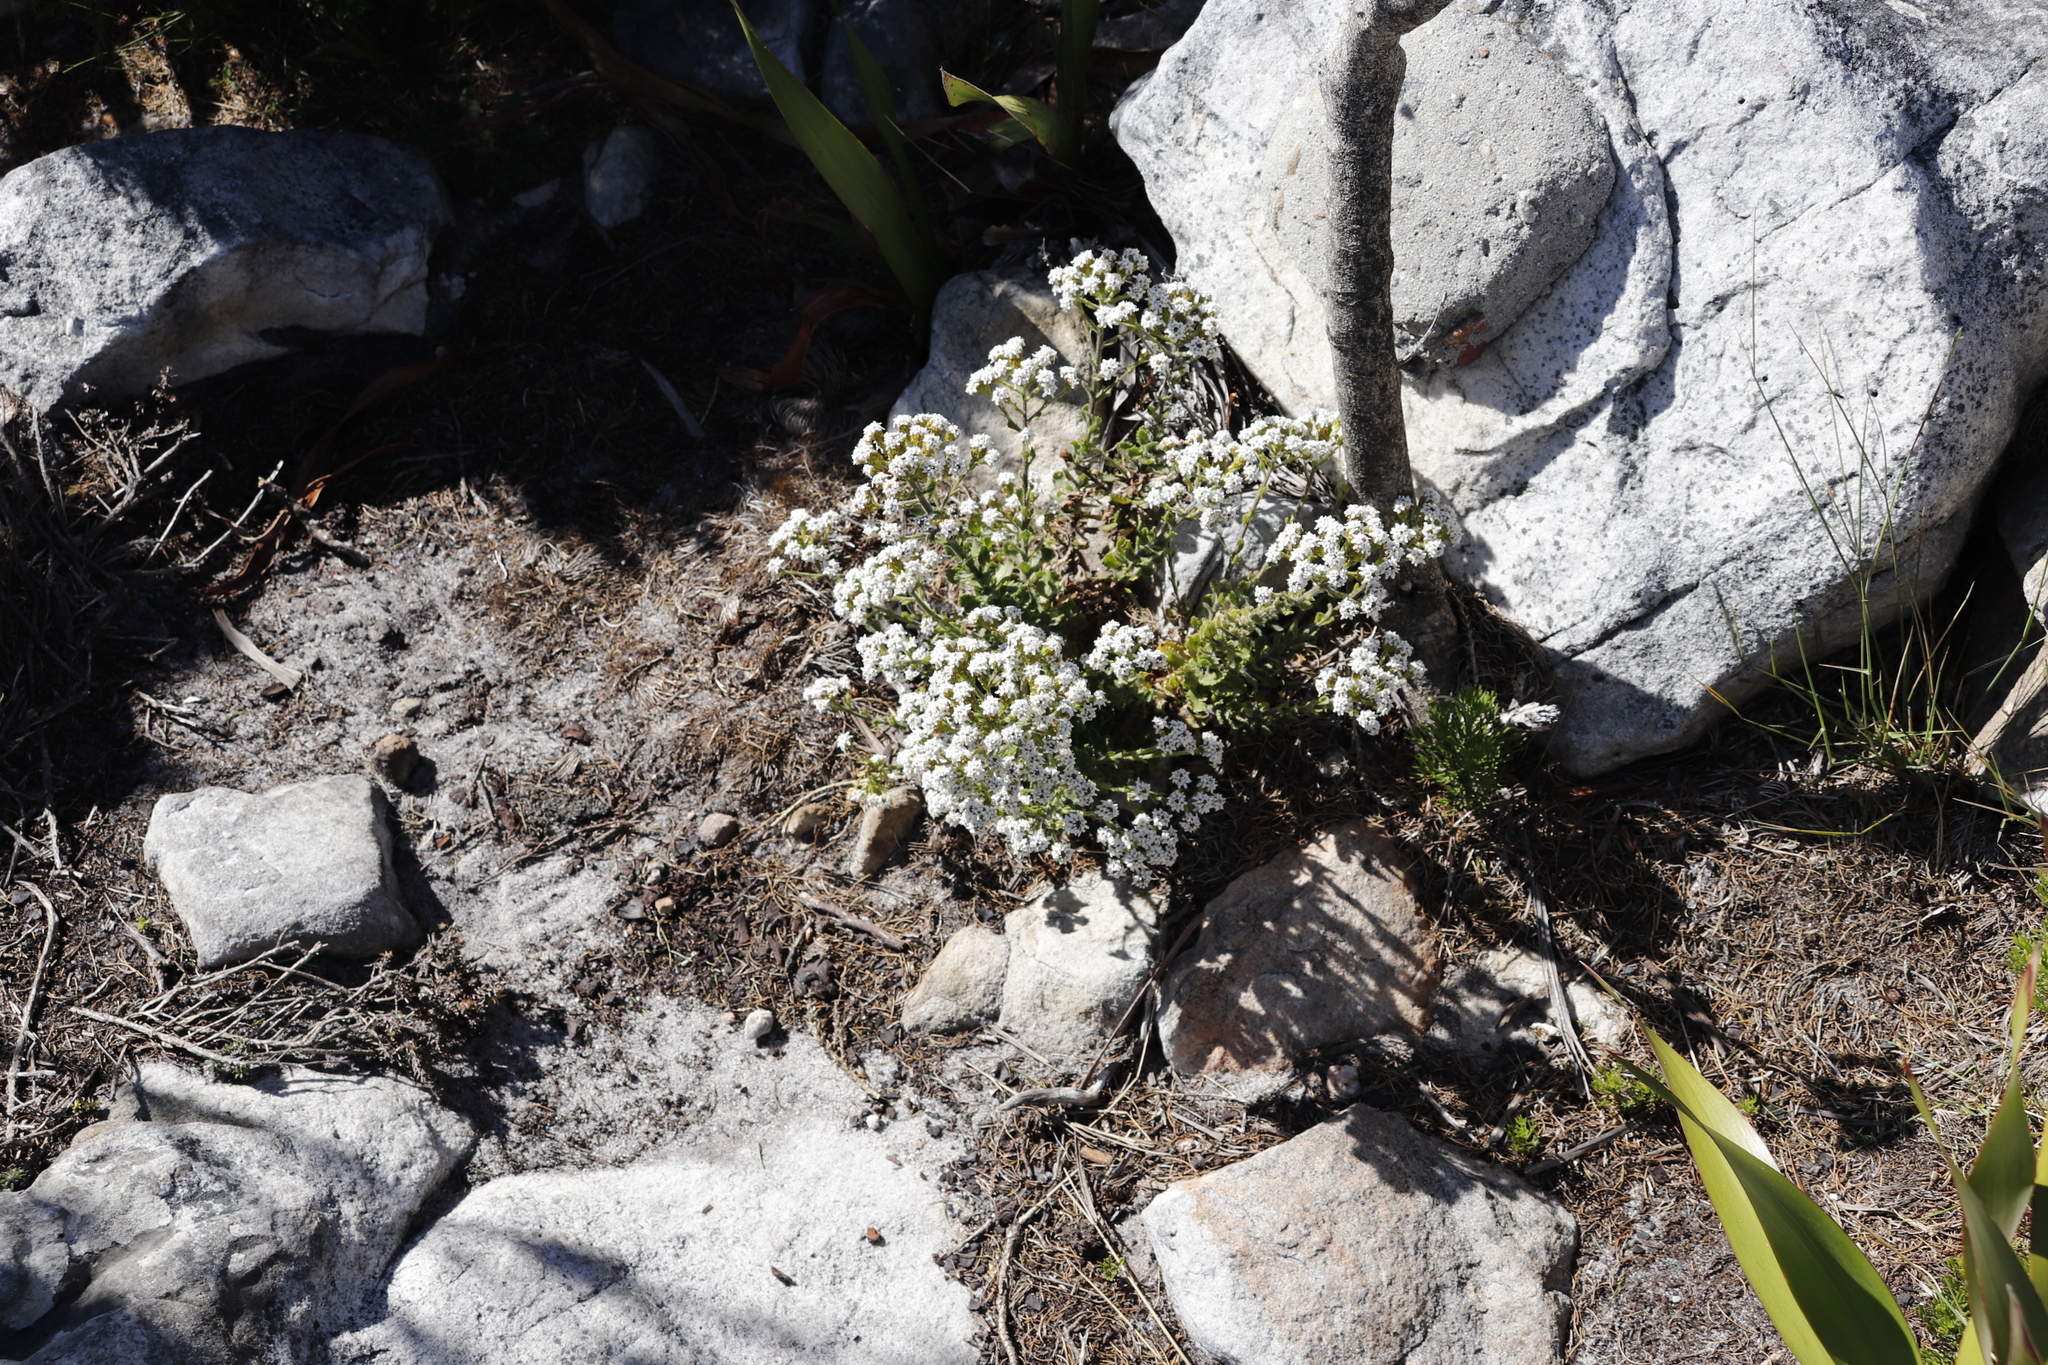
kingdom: Plantae
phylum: Tracheophyta
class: Magnoliopsida
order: Lamiales
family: Scrophulariaceae
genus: Pseudoselago
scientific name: Pseudoselago peninsulae
